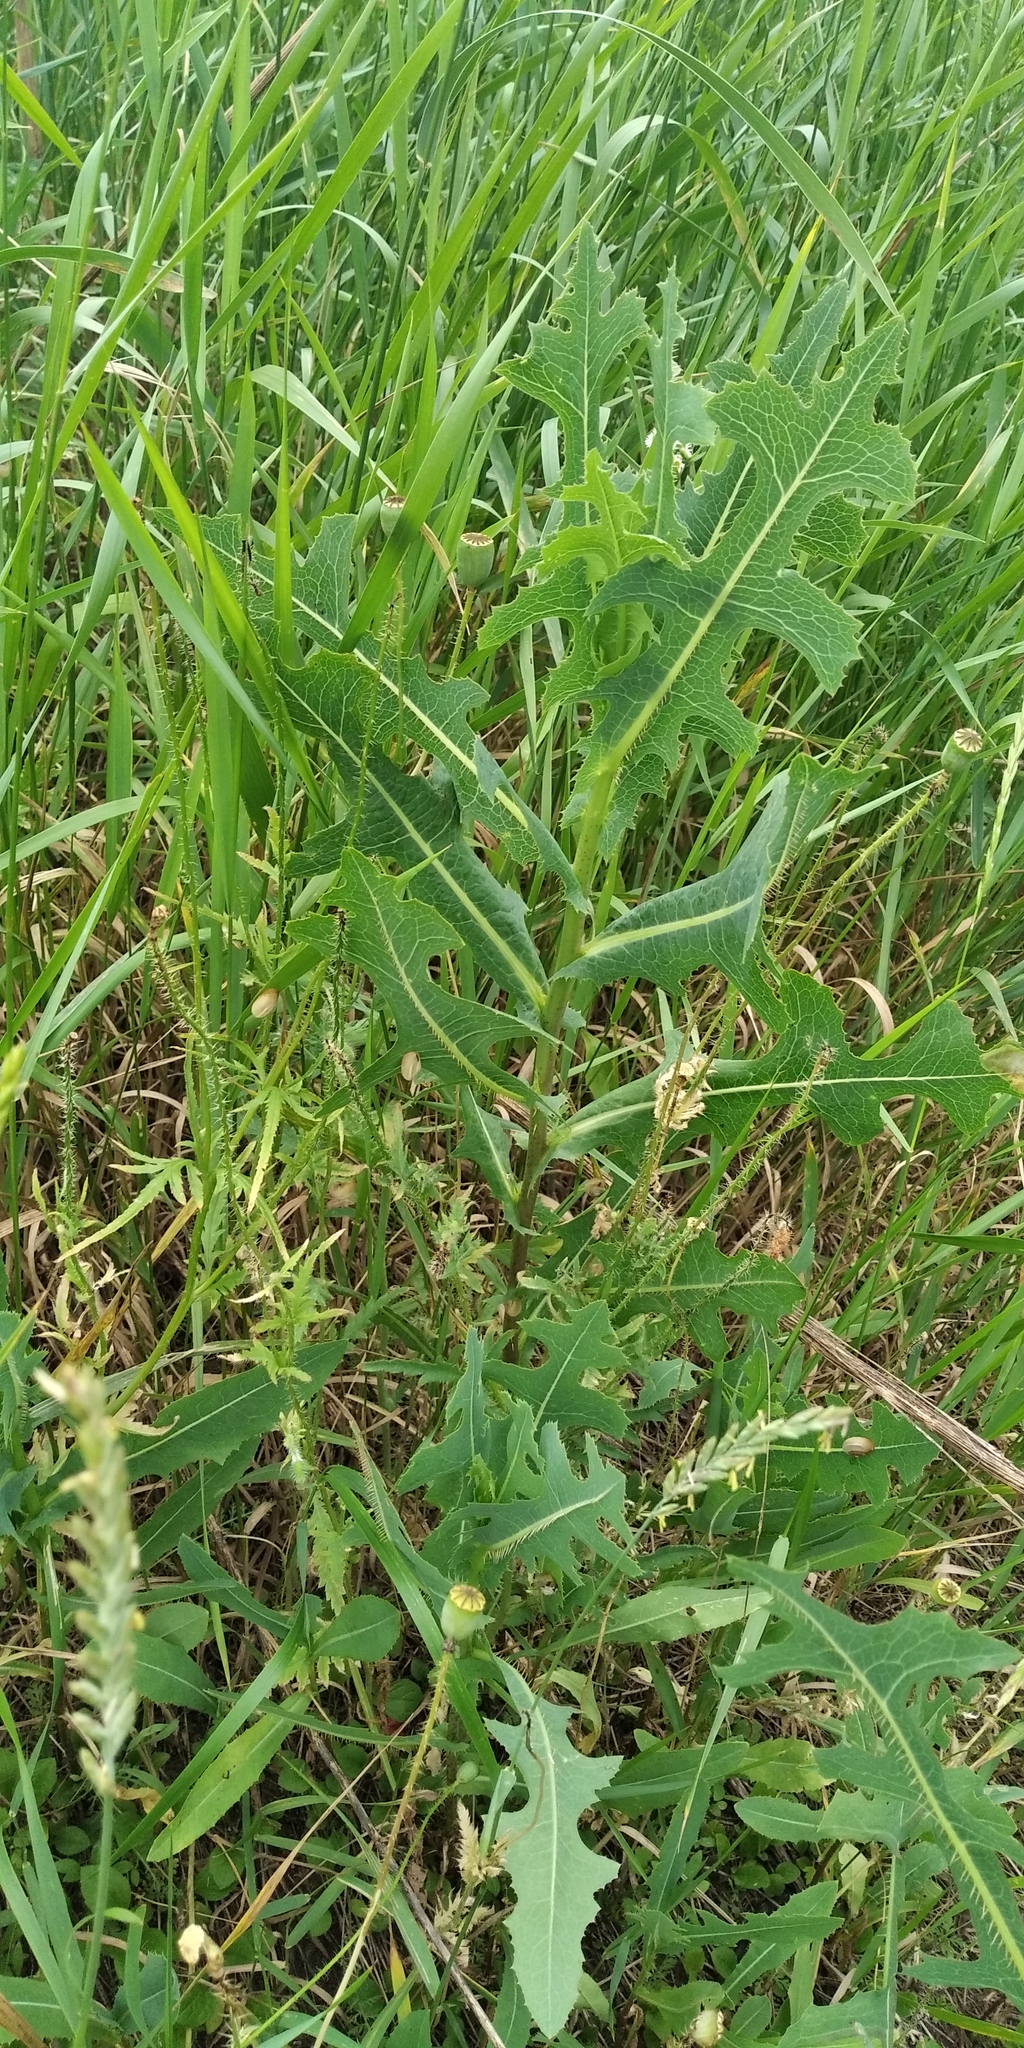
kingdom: Plantae
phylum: Tracheophyta
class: Magnoliopsida
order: Asterales
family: Asteraceae
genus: Lactuca
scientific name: Lactuca serriola
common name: Prickly lettuce
